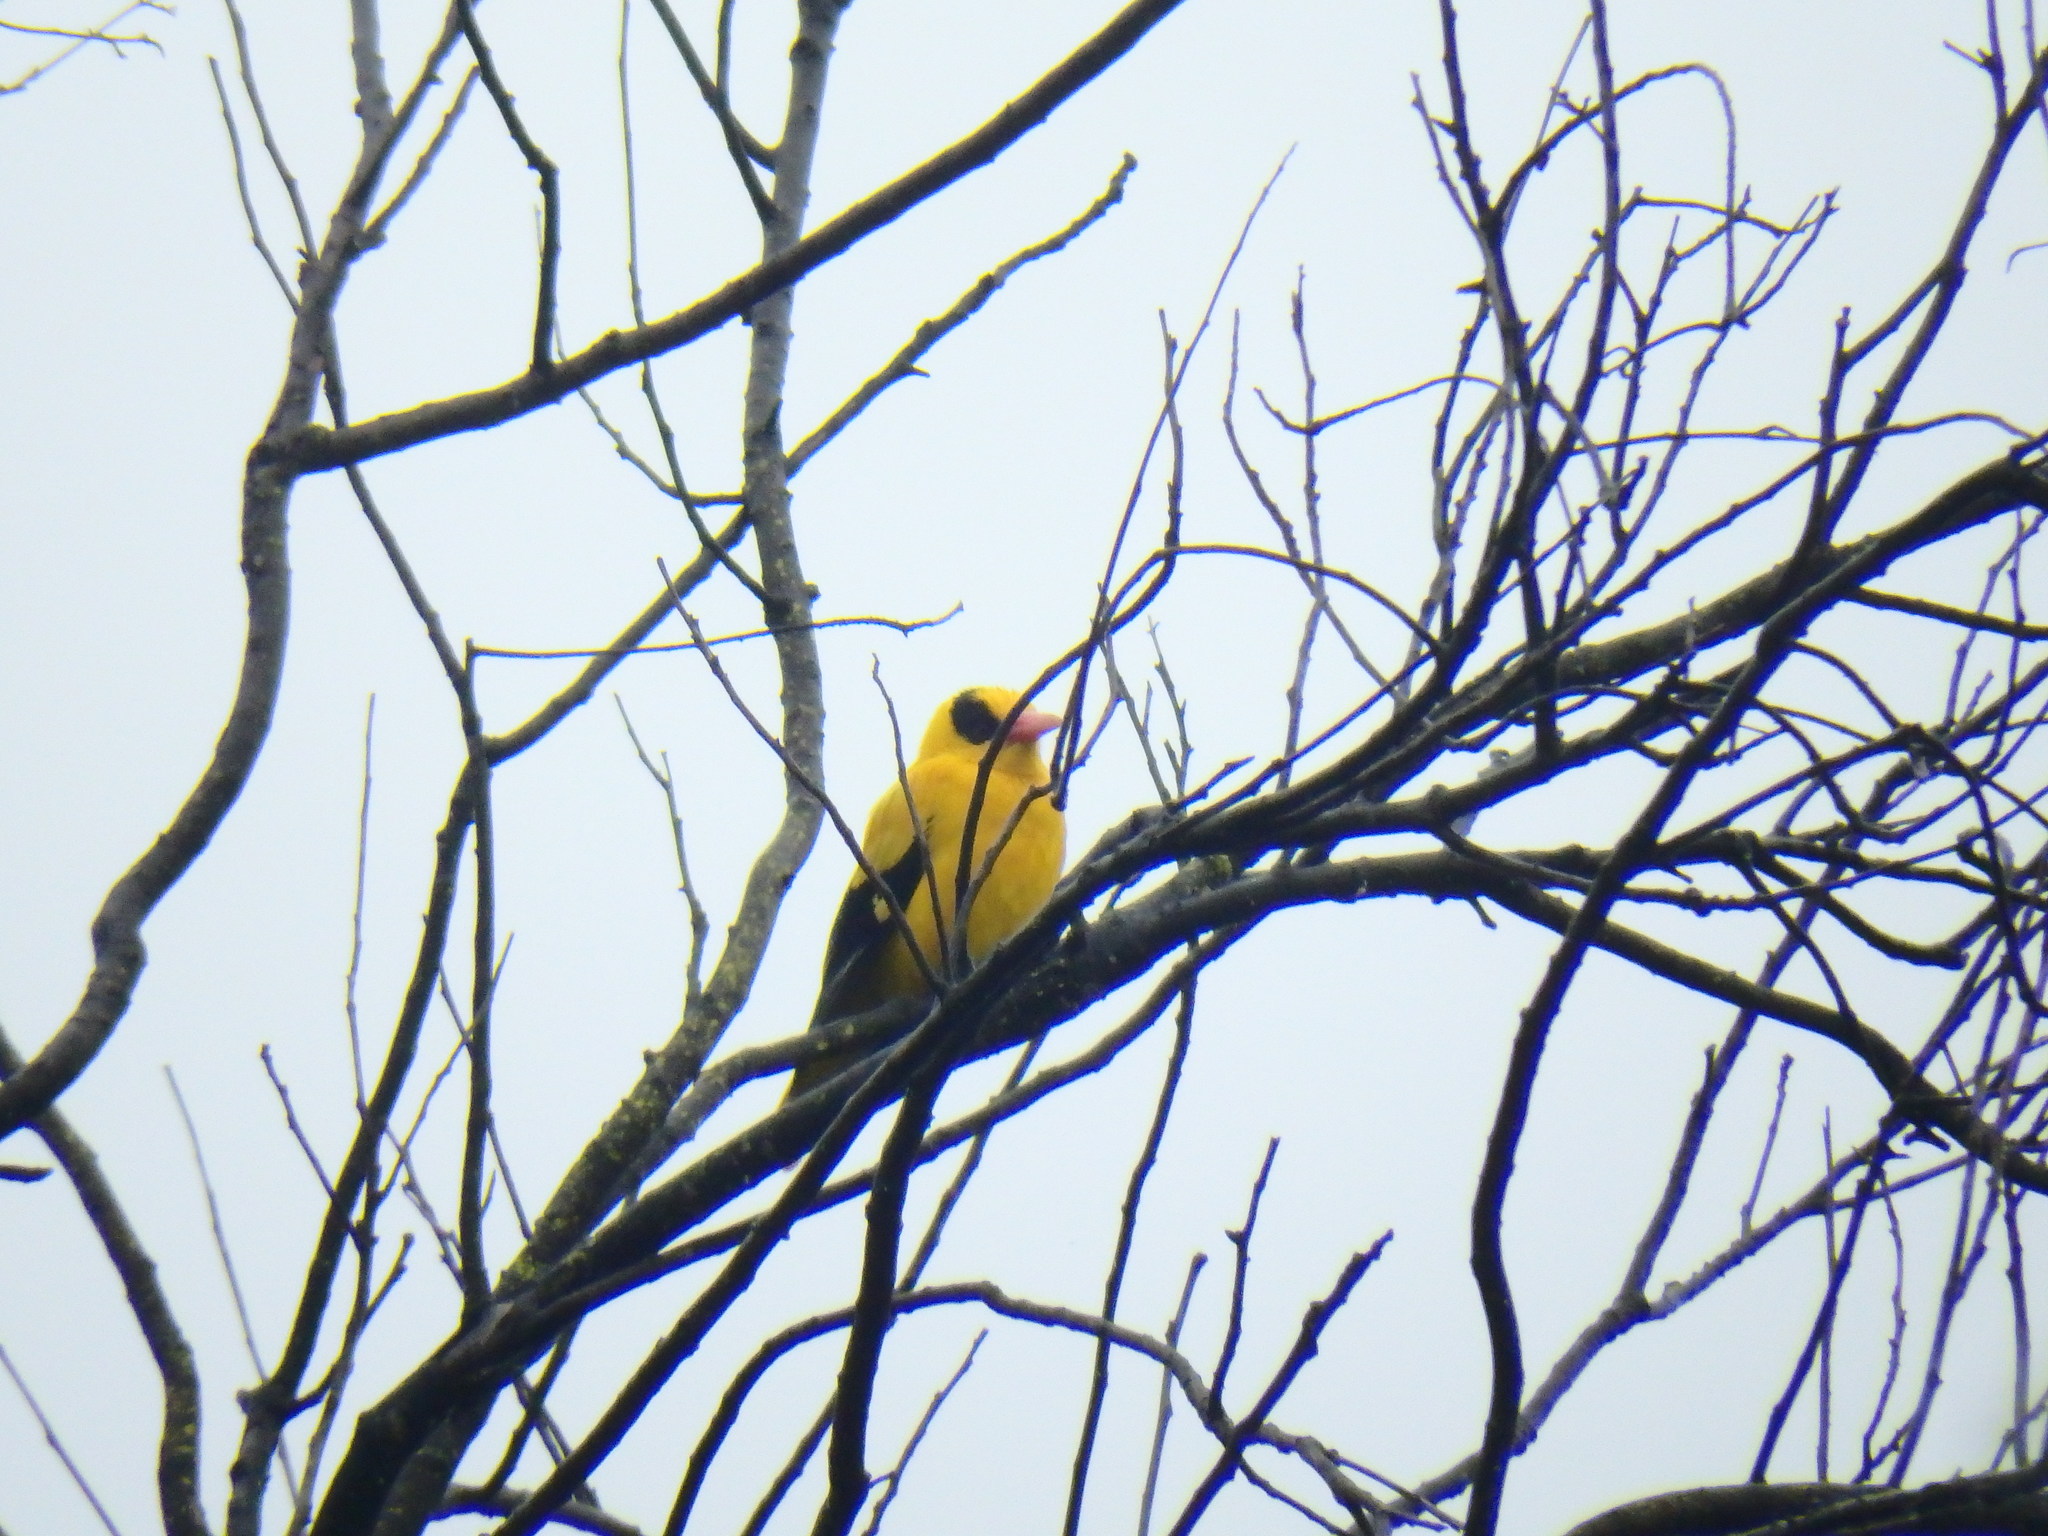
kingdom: Animalia
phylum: Chordata
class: Aves
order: Passeriformes
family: Oriolidae
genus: Oriolus
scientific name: Oriolus chinensis
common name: Black-naped oriole
